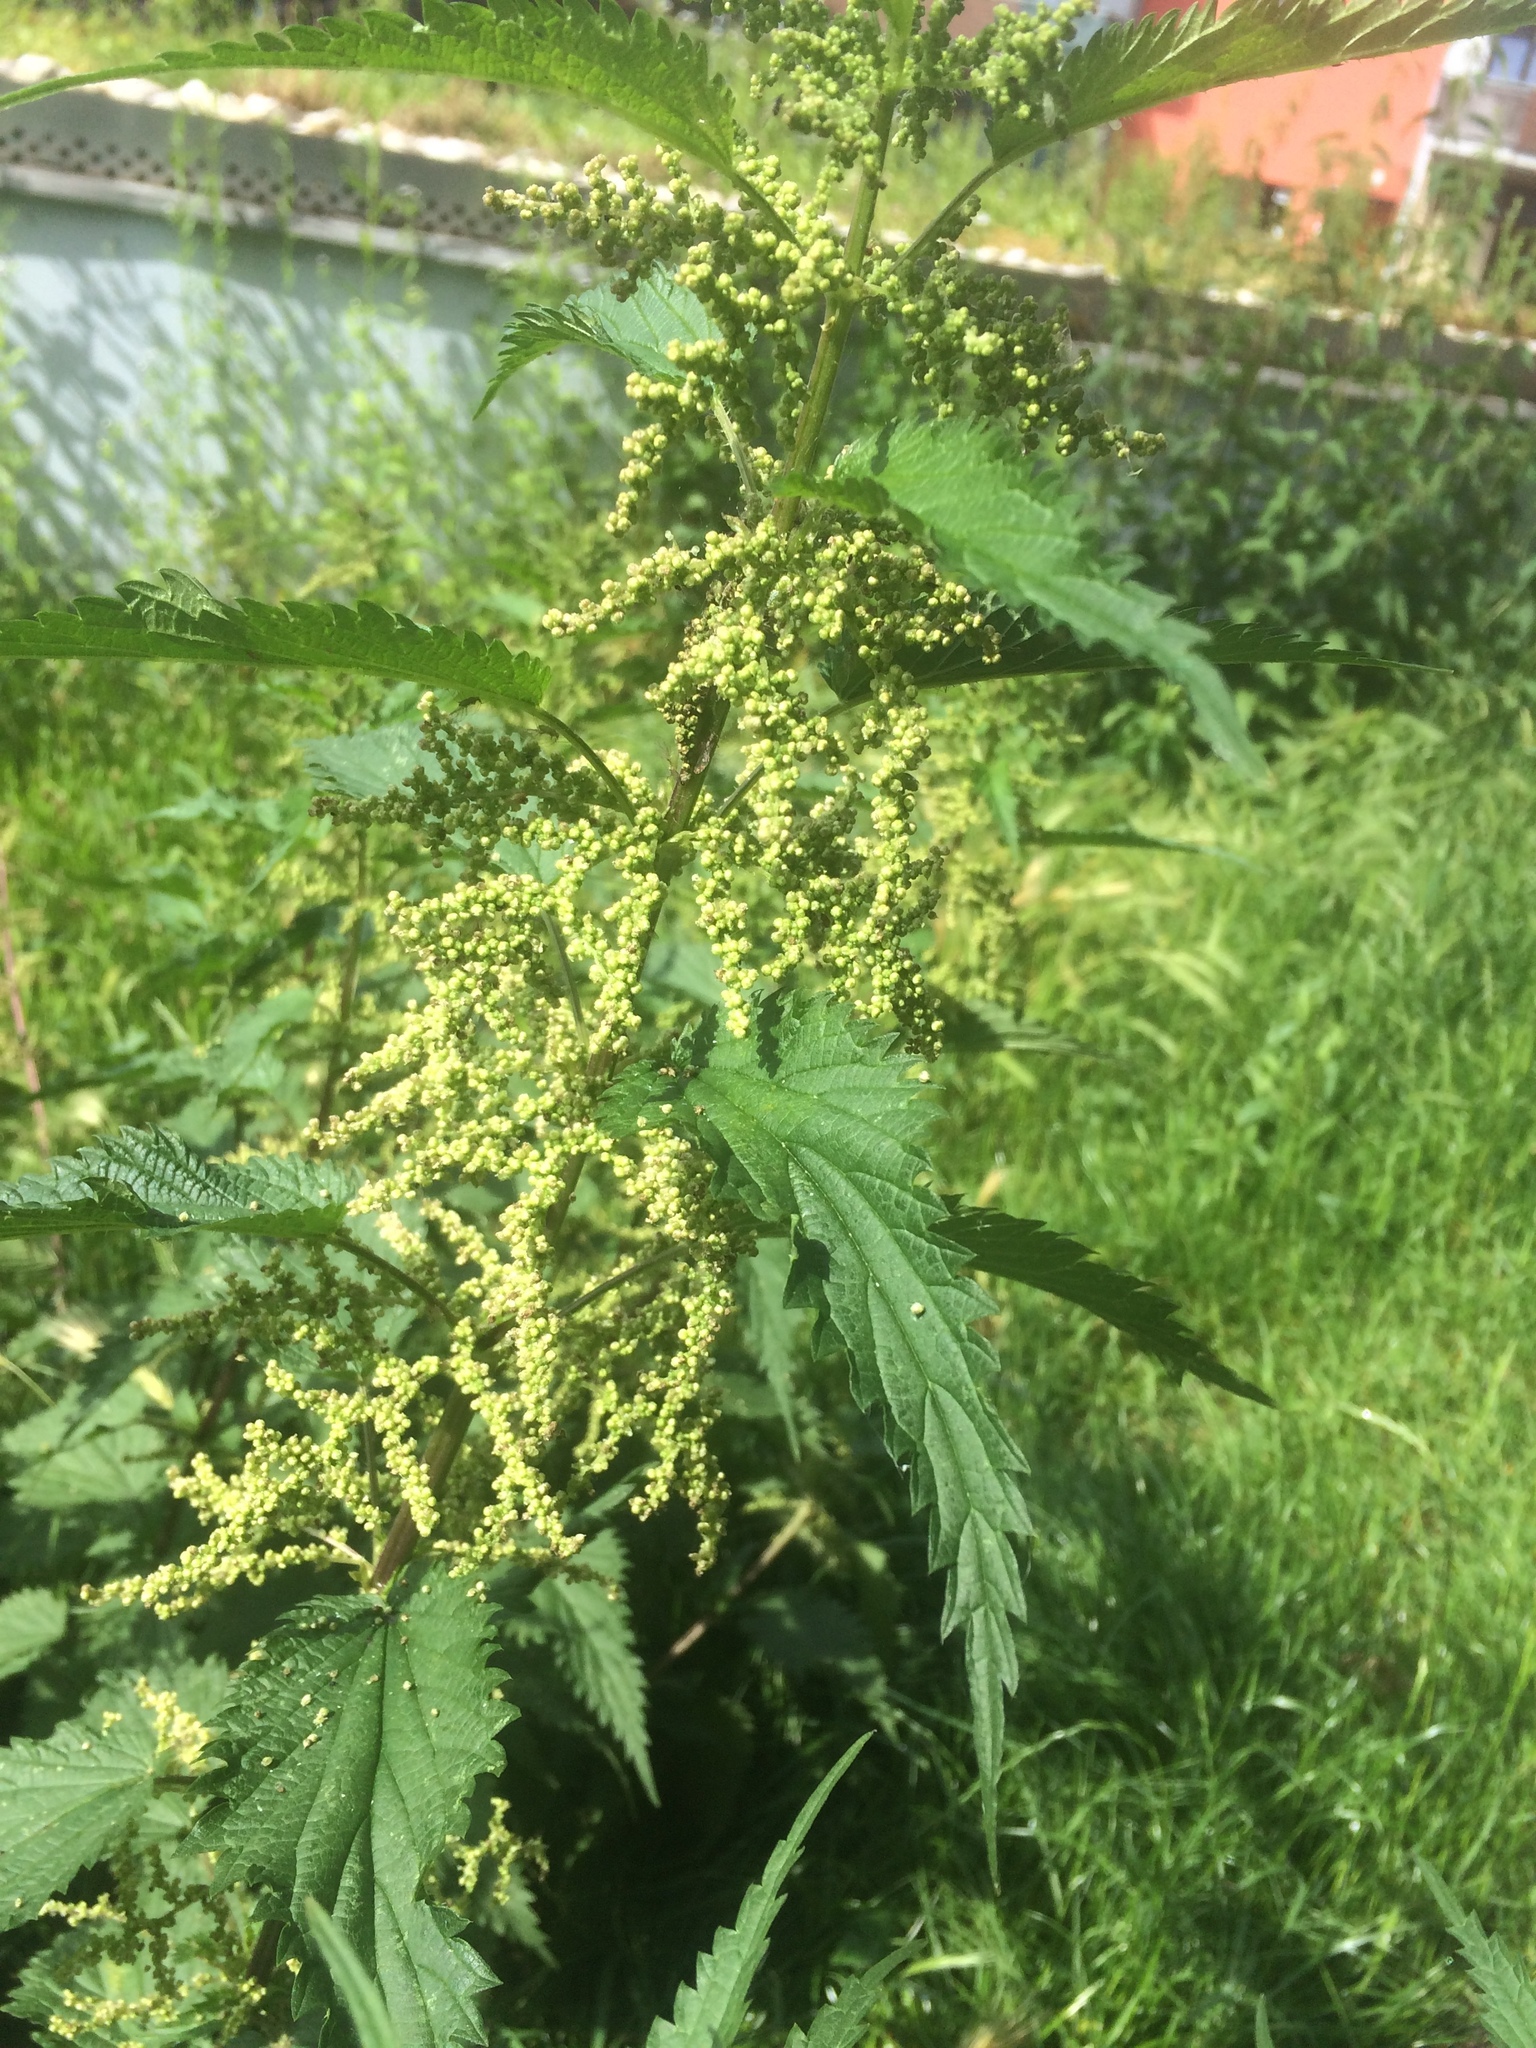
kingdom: Plantae
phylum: Tracheophyta
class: Magnoliopsida
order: Rosales
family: Urticaceae
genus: Urtica
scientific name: Urtica dioica
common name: Common nettle
